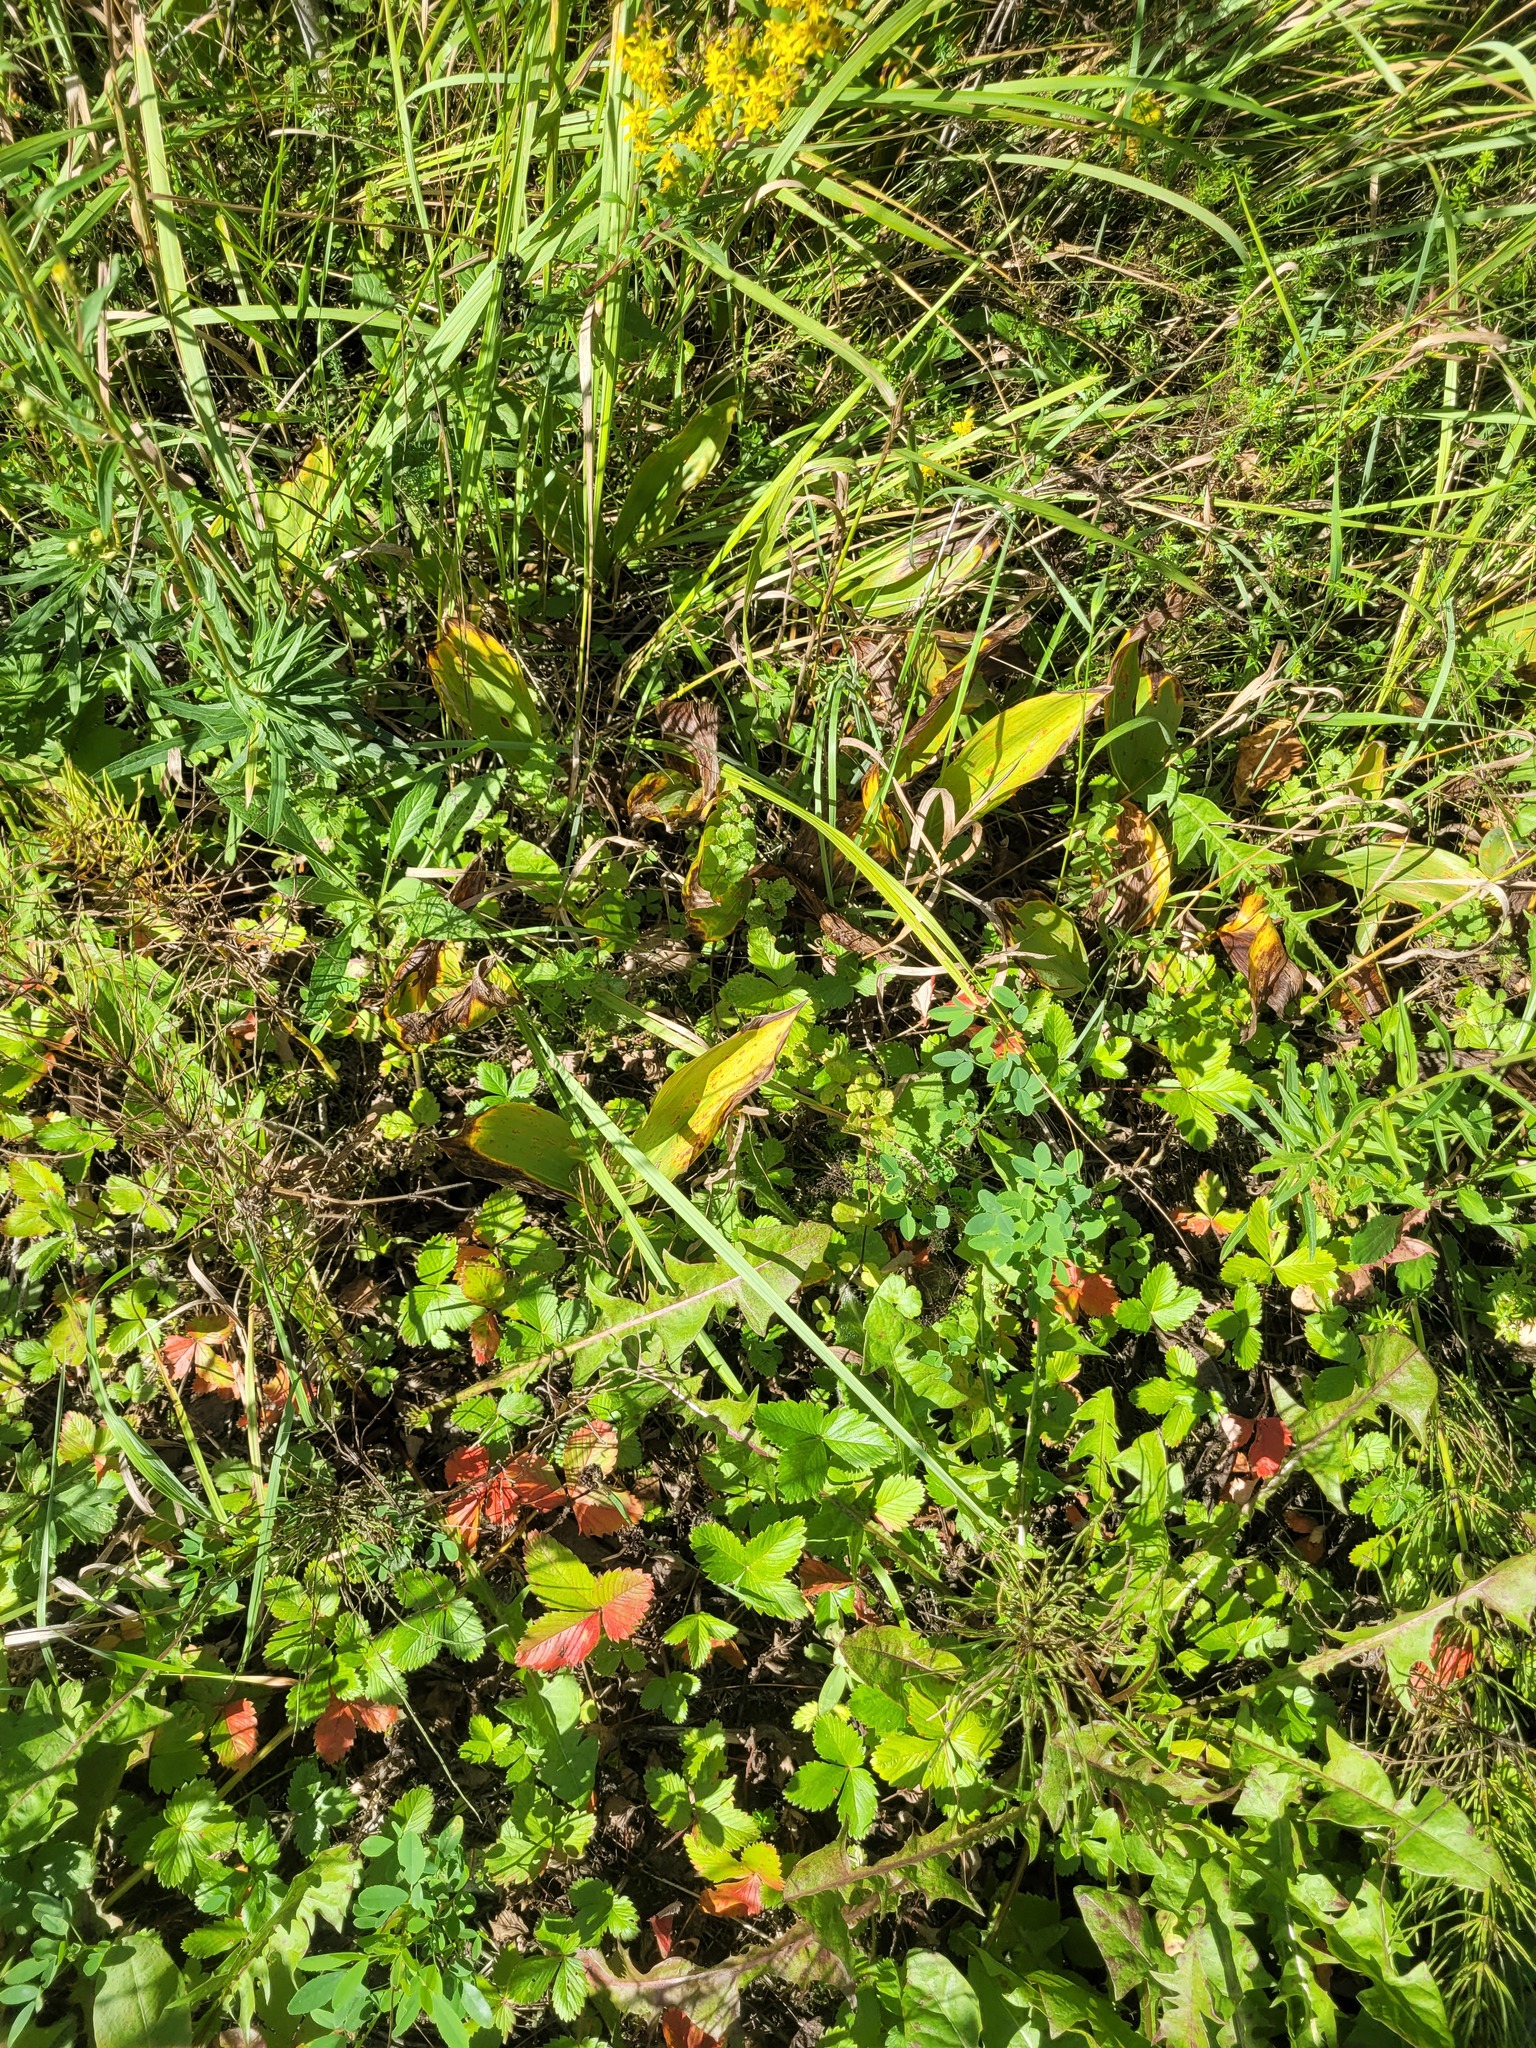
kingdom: Plantae
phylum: Tracheophyta
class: Liliopsida
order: Asparagales
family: Asparagaceae
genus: Convallaria
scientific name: Convallaria majalis
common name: Lily-of-the-valley
